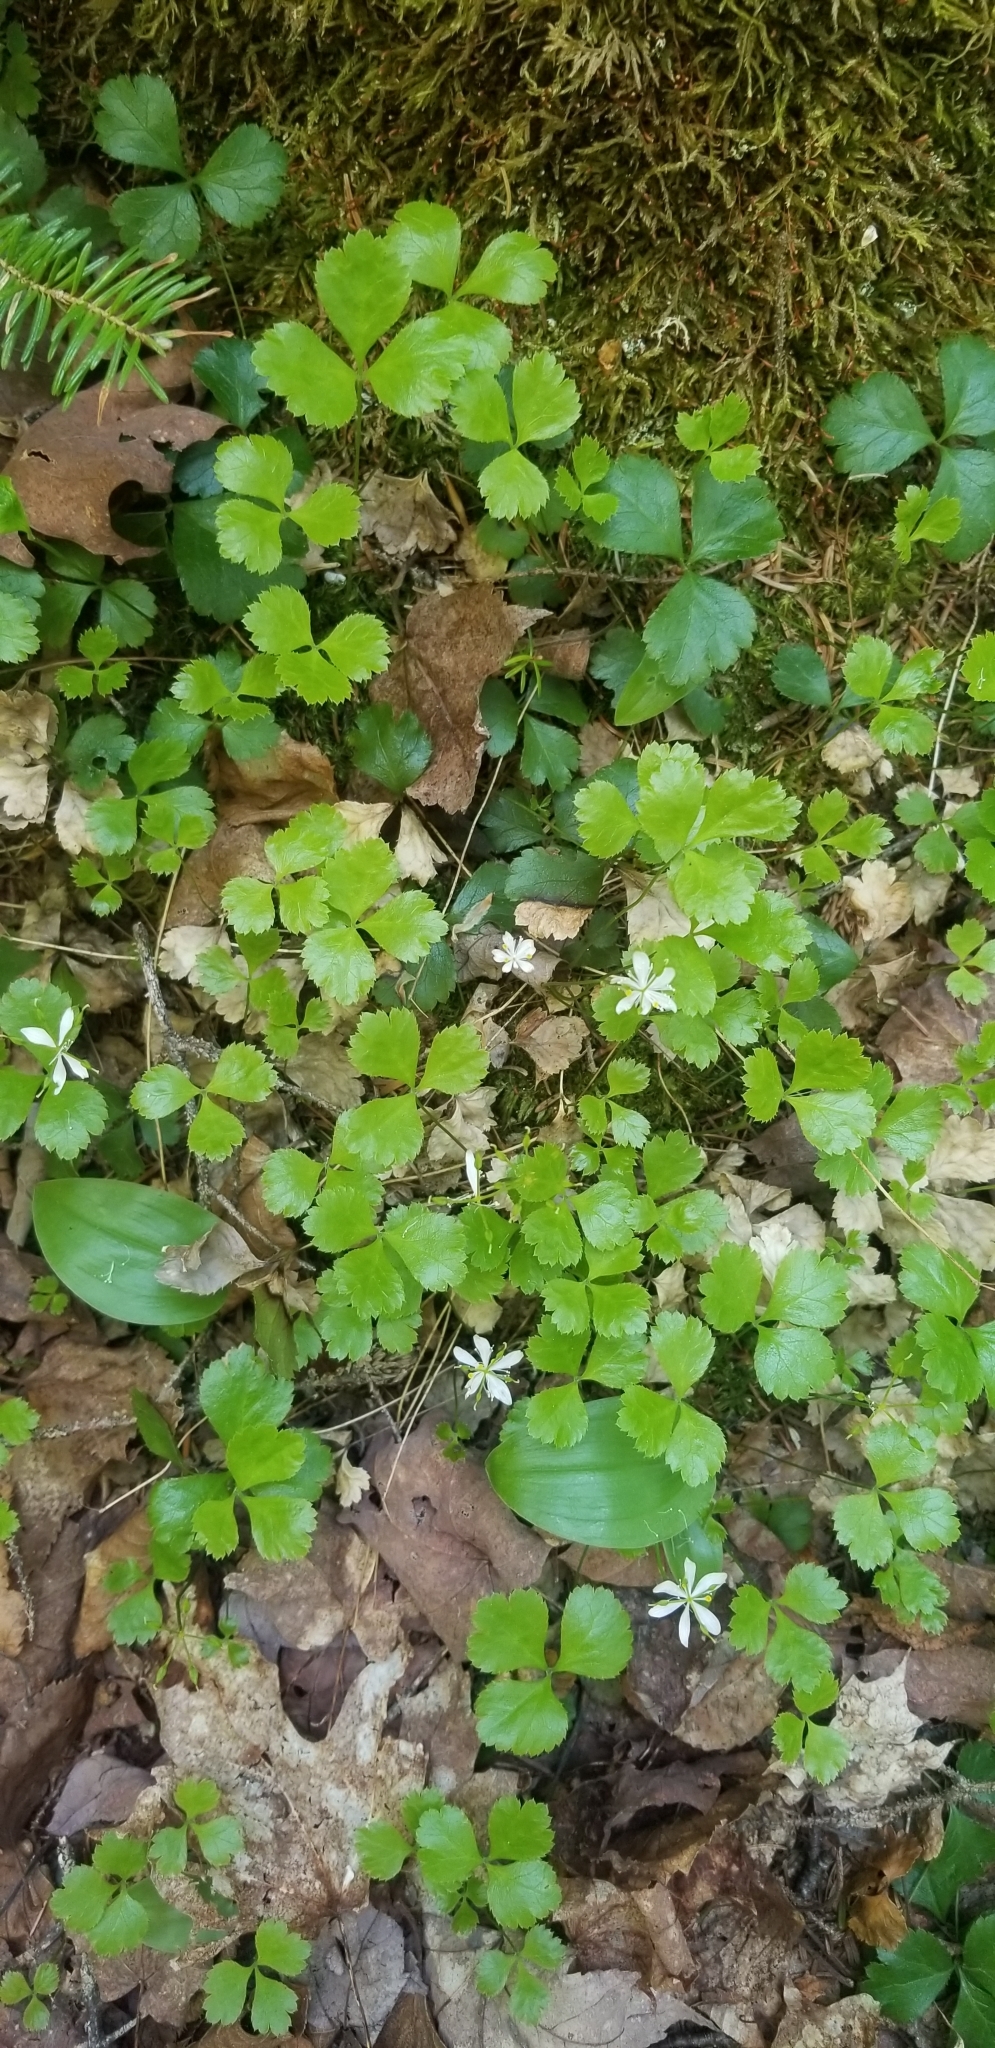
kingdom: Plantae
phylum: Tracheophyta
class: Magnoliopsida
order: Ranunculales
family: Ranunculaceae
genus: Coptis
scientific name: Coptis trifolia
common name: Canker-root
